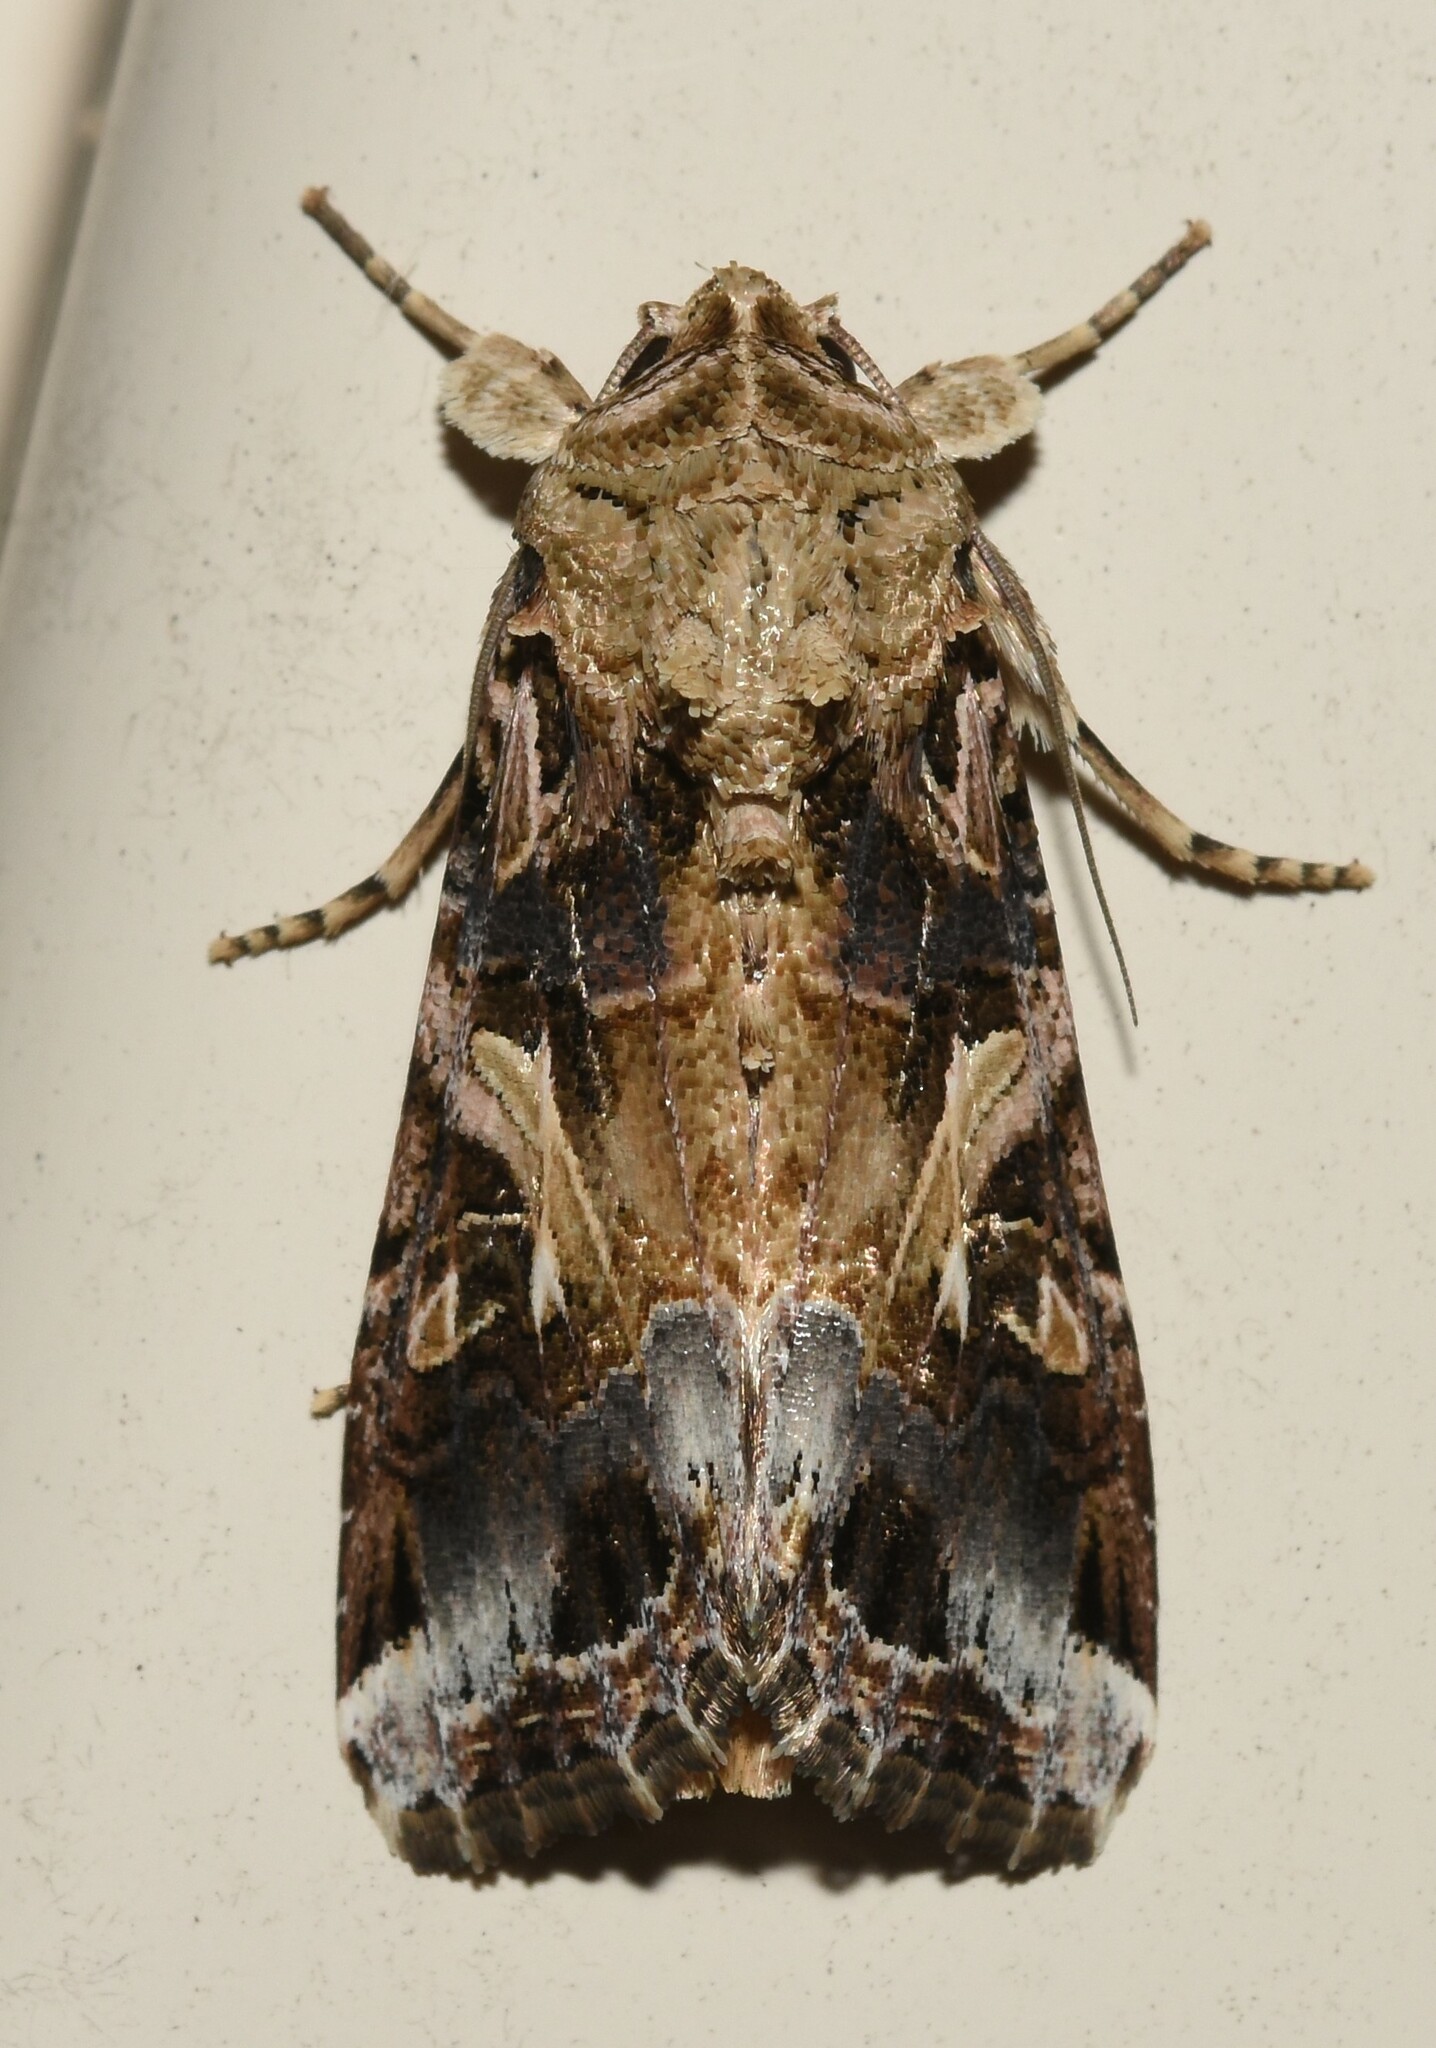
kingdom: Animalia
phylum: Arthropoda
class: Insecta
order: Lepidoptera
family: Noctuidae
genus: Spodoptera
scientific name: Spodoptera ornithogalli
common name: Yellow-striped armyworm
